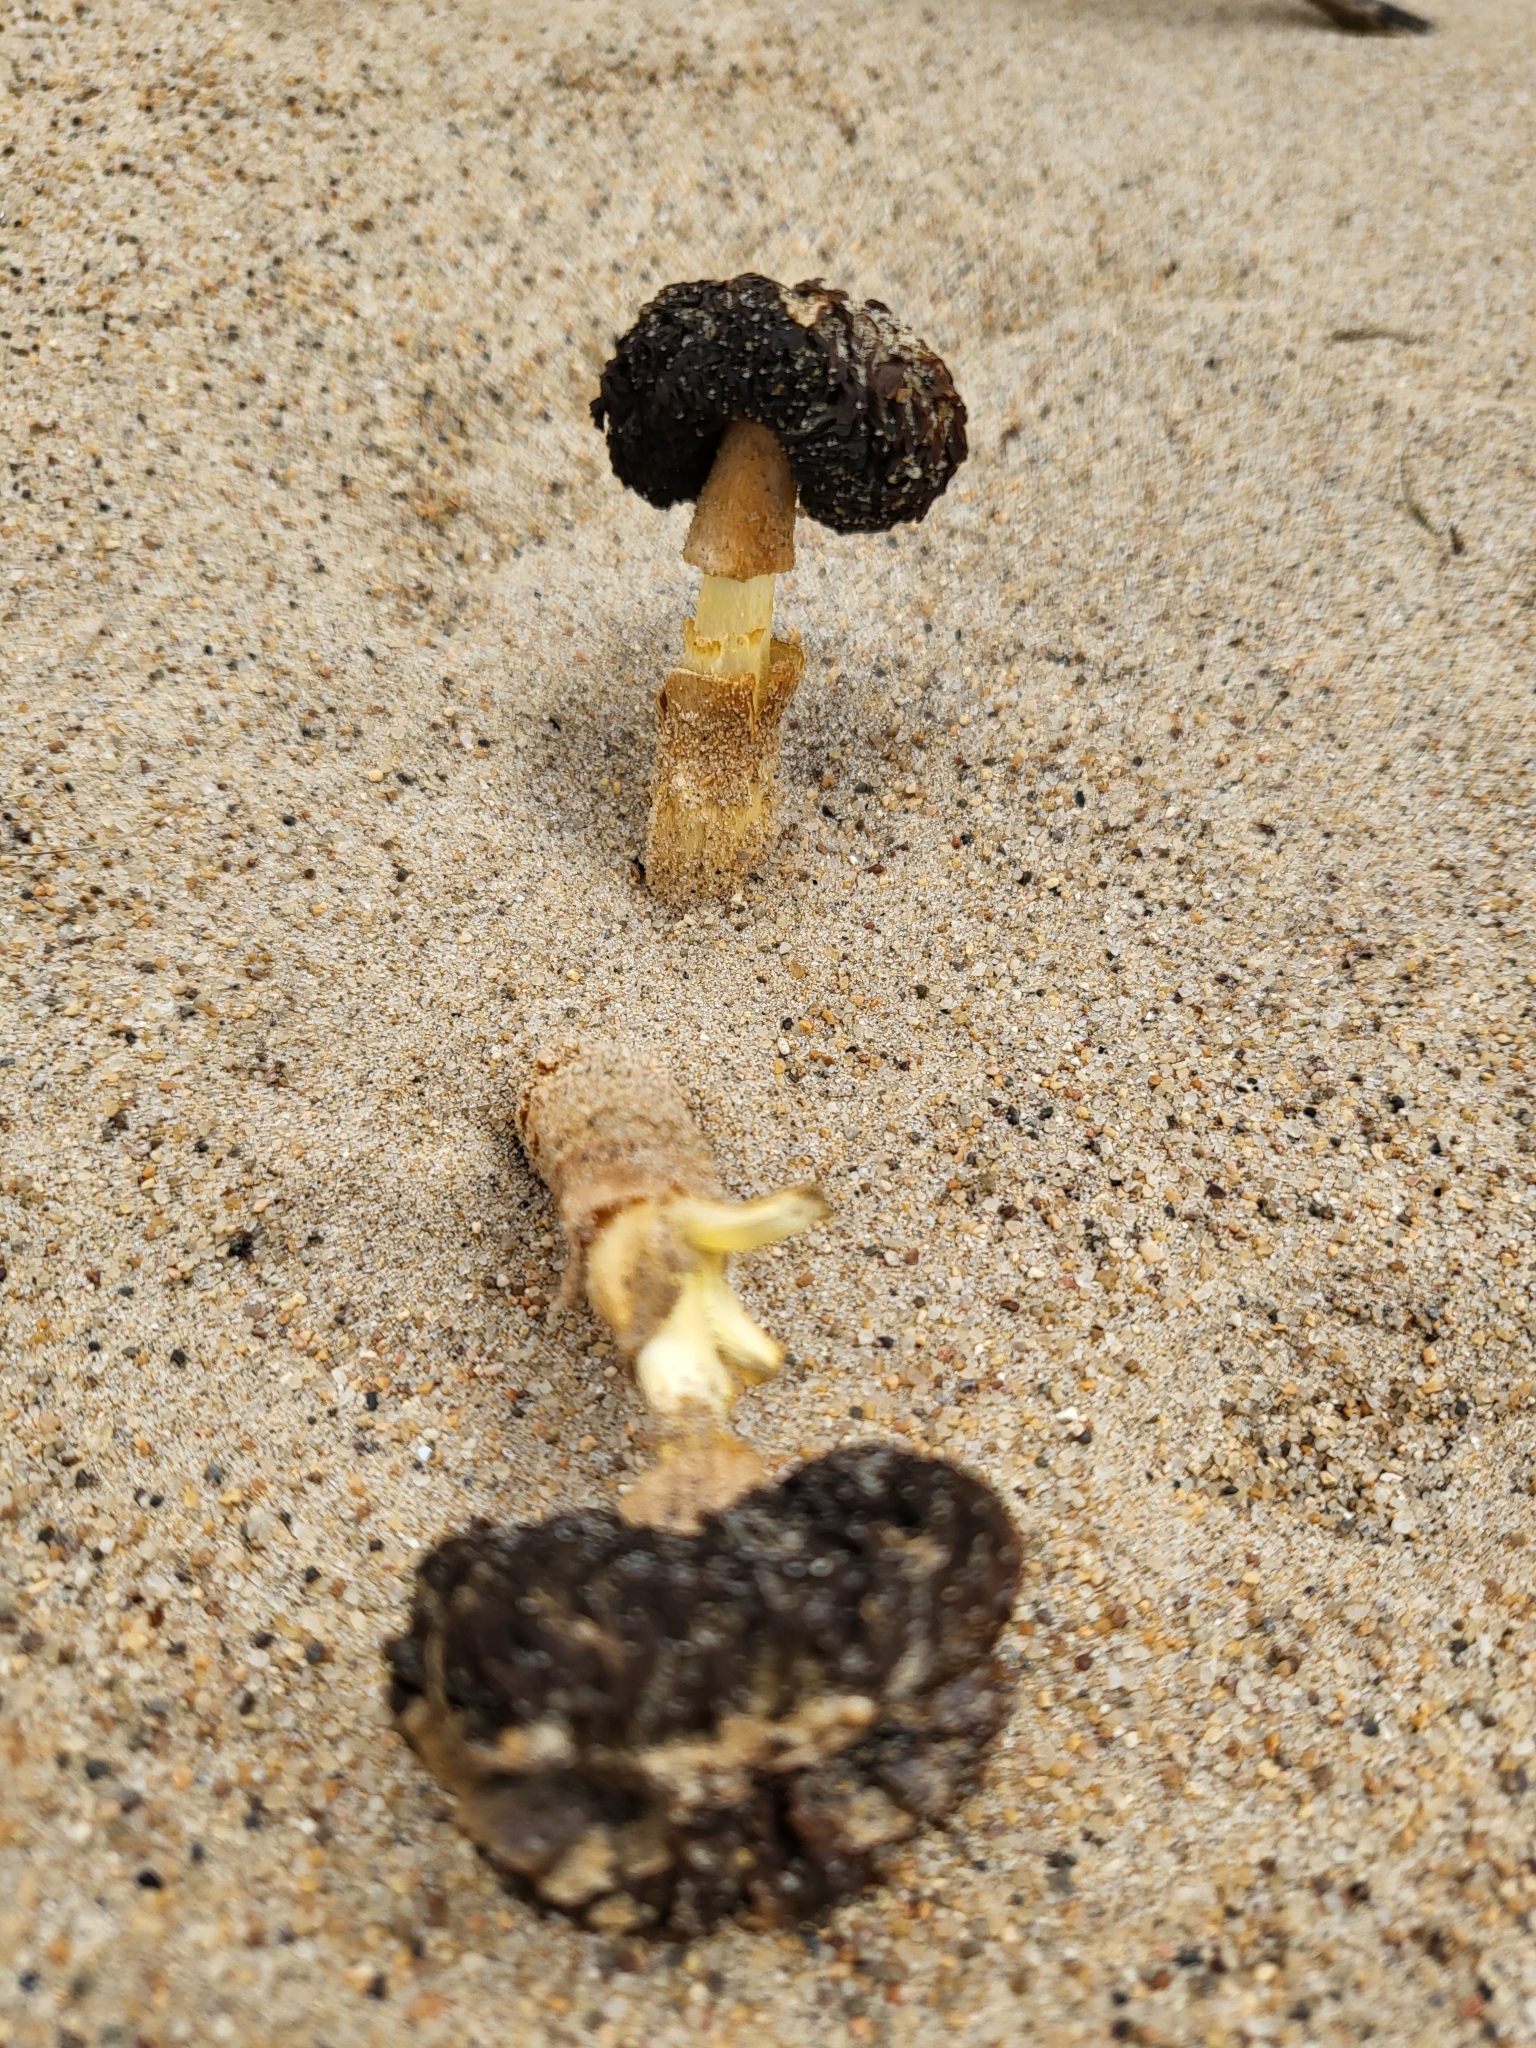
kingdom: Fungi
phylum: Basidiomycota
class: Agaricomycetes
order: Agaricales
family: Agaricaceae
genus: Montagnea
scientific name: Montagnea arenaria
